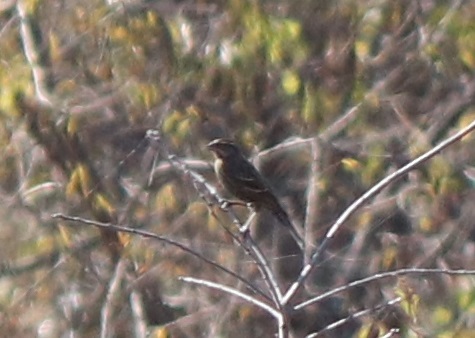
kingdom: Animalia
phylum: Chordata
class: Aves
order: Passeriformes
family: Icteridae
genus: Agelaius
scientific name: Agelaius phoeniceus
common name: Red-winged blackbird
